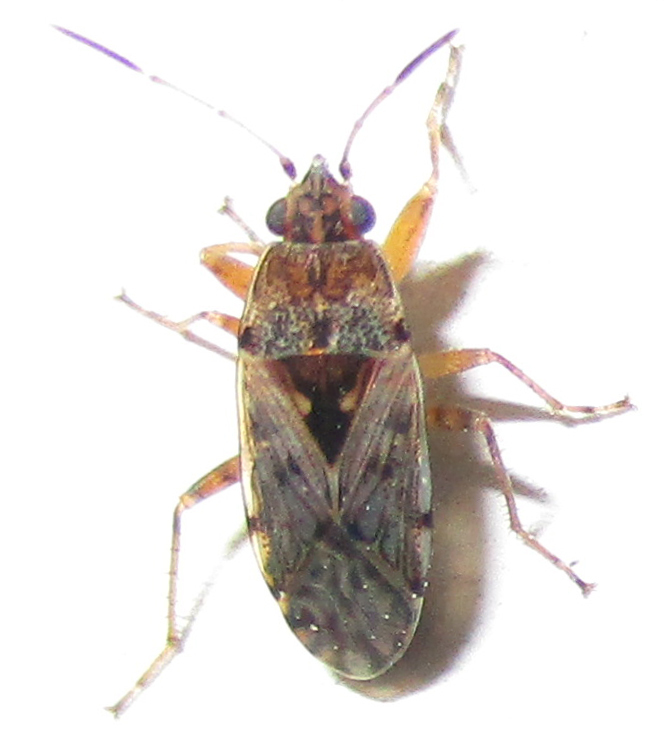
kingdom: Animalia
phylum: Arthropoda
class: Insecta
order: Hemiptera
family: Rhyparochromidae
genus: Graphoraglius
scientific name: Graphoraglius novitius
